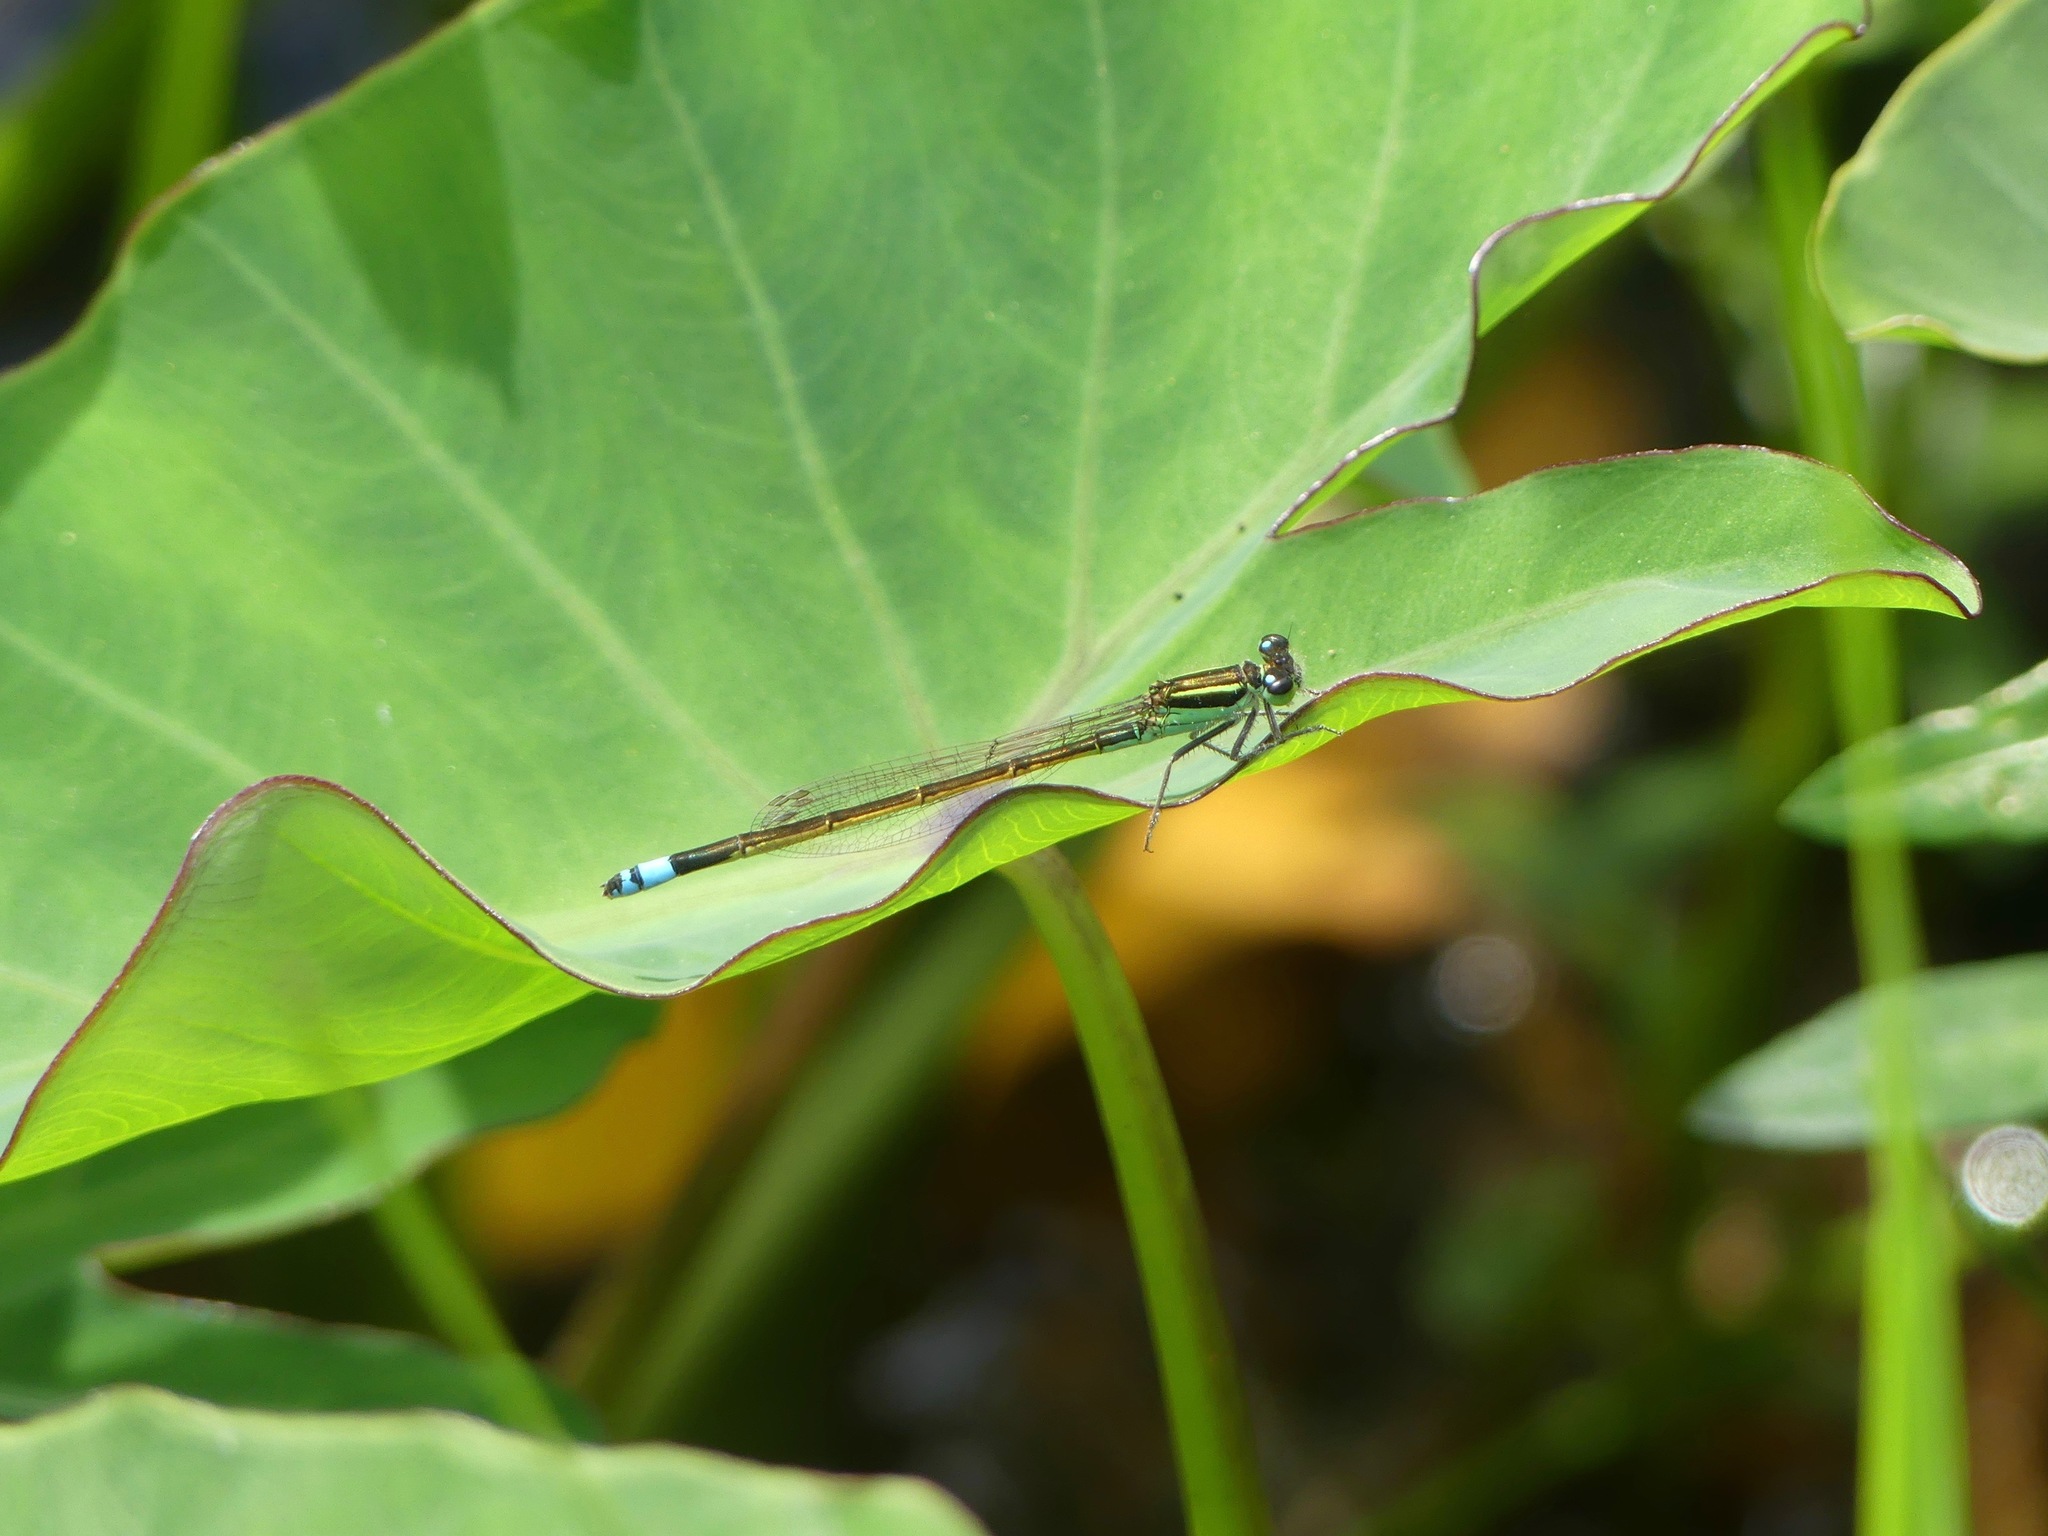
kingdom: Animalia
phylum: Arthropoda
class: Insecta
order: Odonata
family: Coenagrionidae
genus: Ischnura
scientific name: Ischnura ramburii
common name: Rambur's forktail
